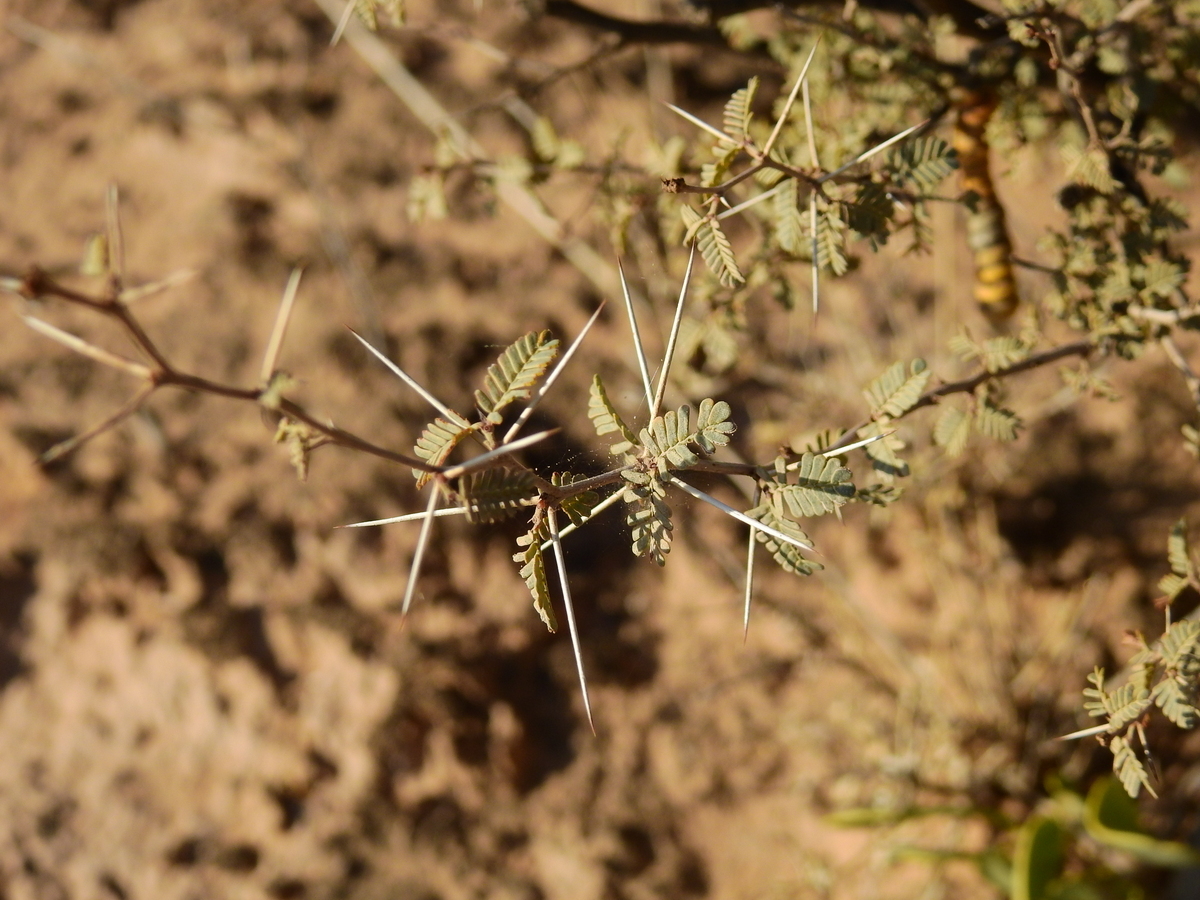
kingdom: Plantae
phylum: Tracheophyta
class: Magnoliopsida
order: Fabales
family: Fabaceae
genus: Prosopis
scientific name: Prosopis reptans
